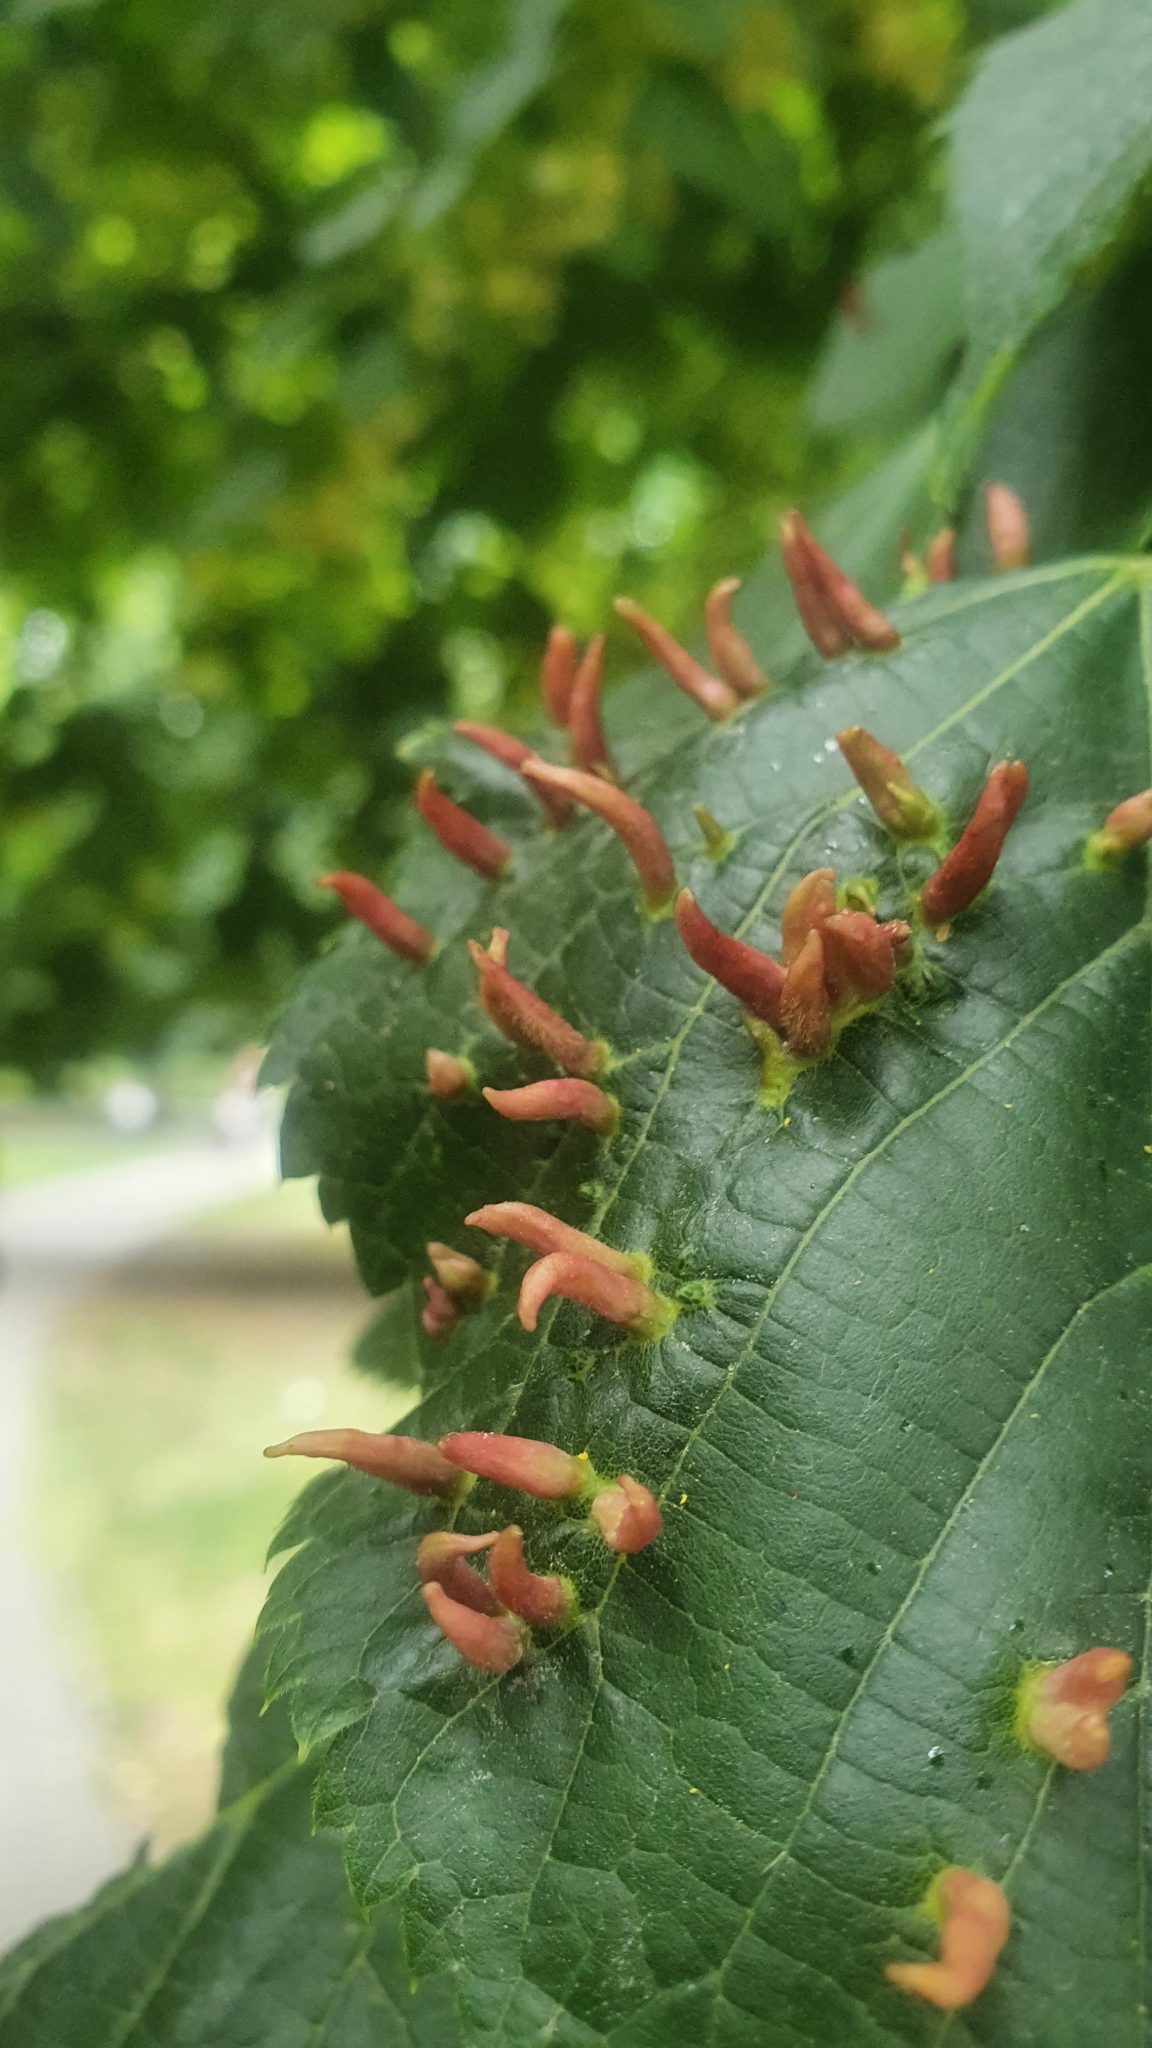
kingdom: Animalia
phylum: Arthropoda
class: Arachnida
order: Trombidiformes
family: Eriophyidae
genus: Eriophyes
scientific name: Eriophyes tiliae
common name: Red nail gall mite
